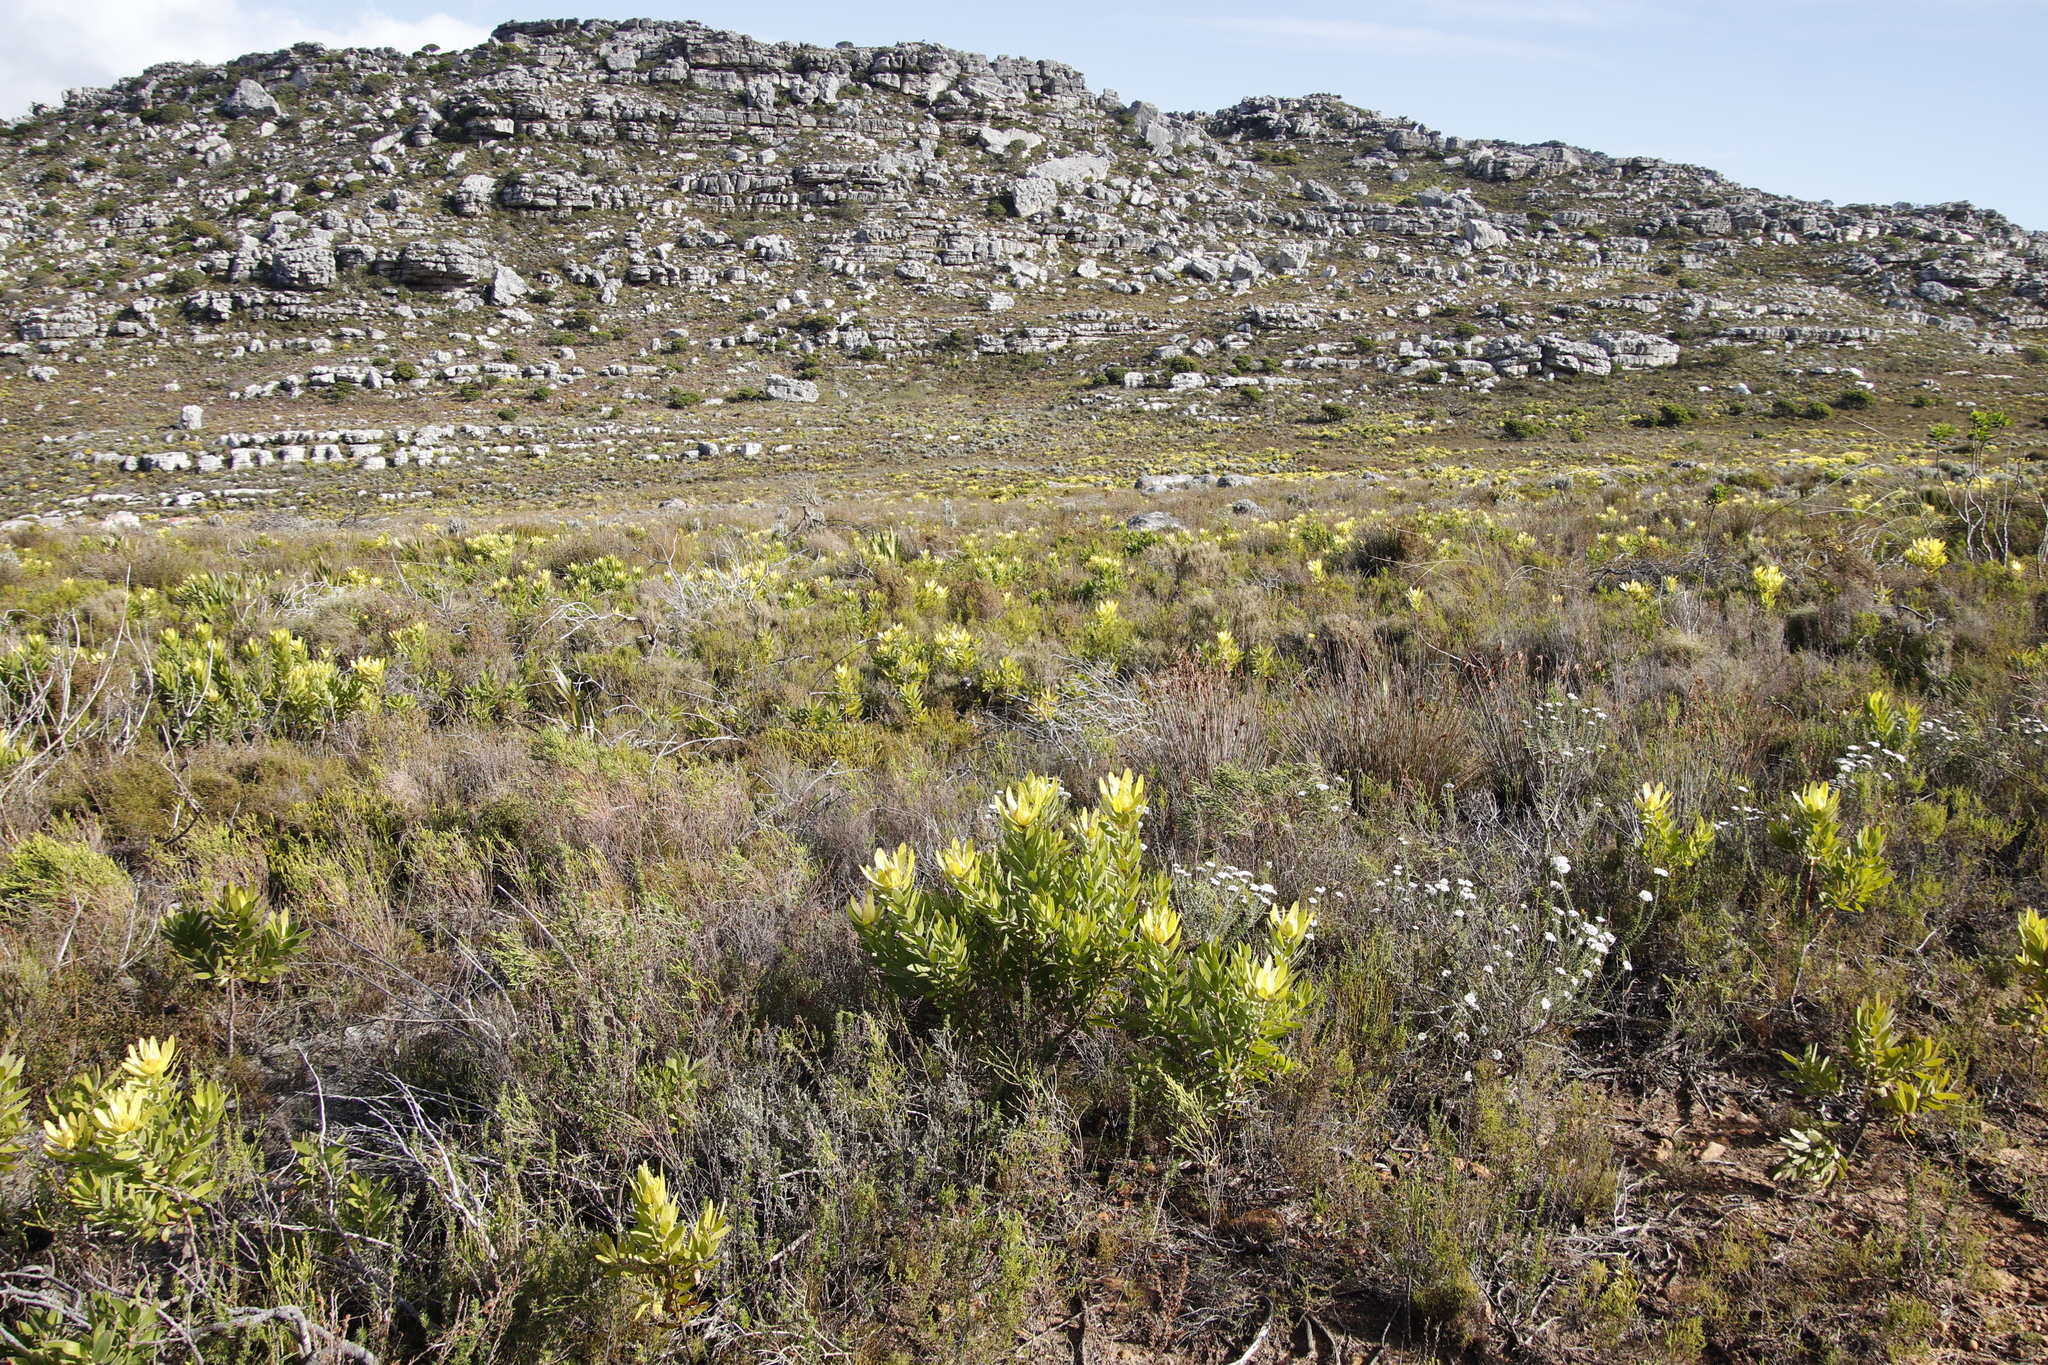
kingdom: Plantae
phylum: Tracheophyta
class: Magnoliopsida
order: Proteales
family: Proteaceae
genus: Leucadendron
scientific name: Leucadendron laureolum
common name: Golden sunshinebush
